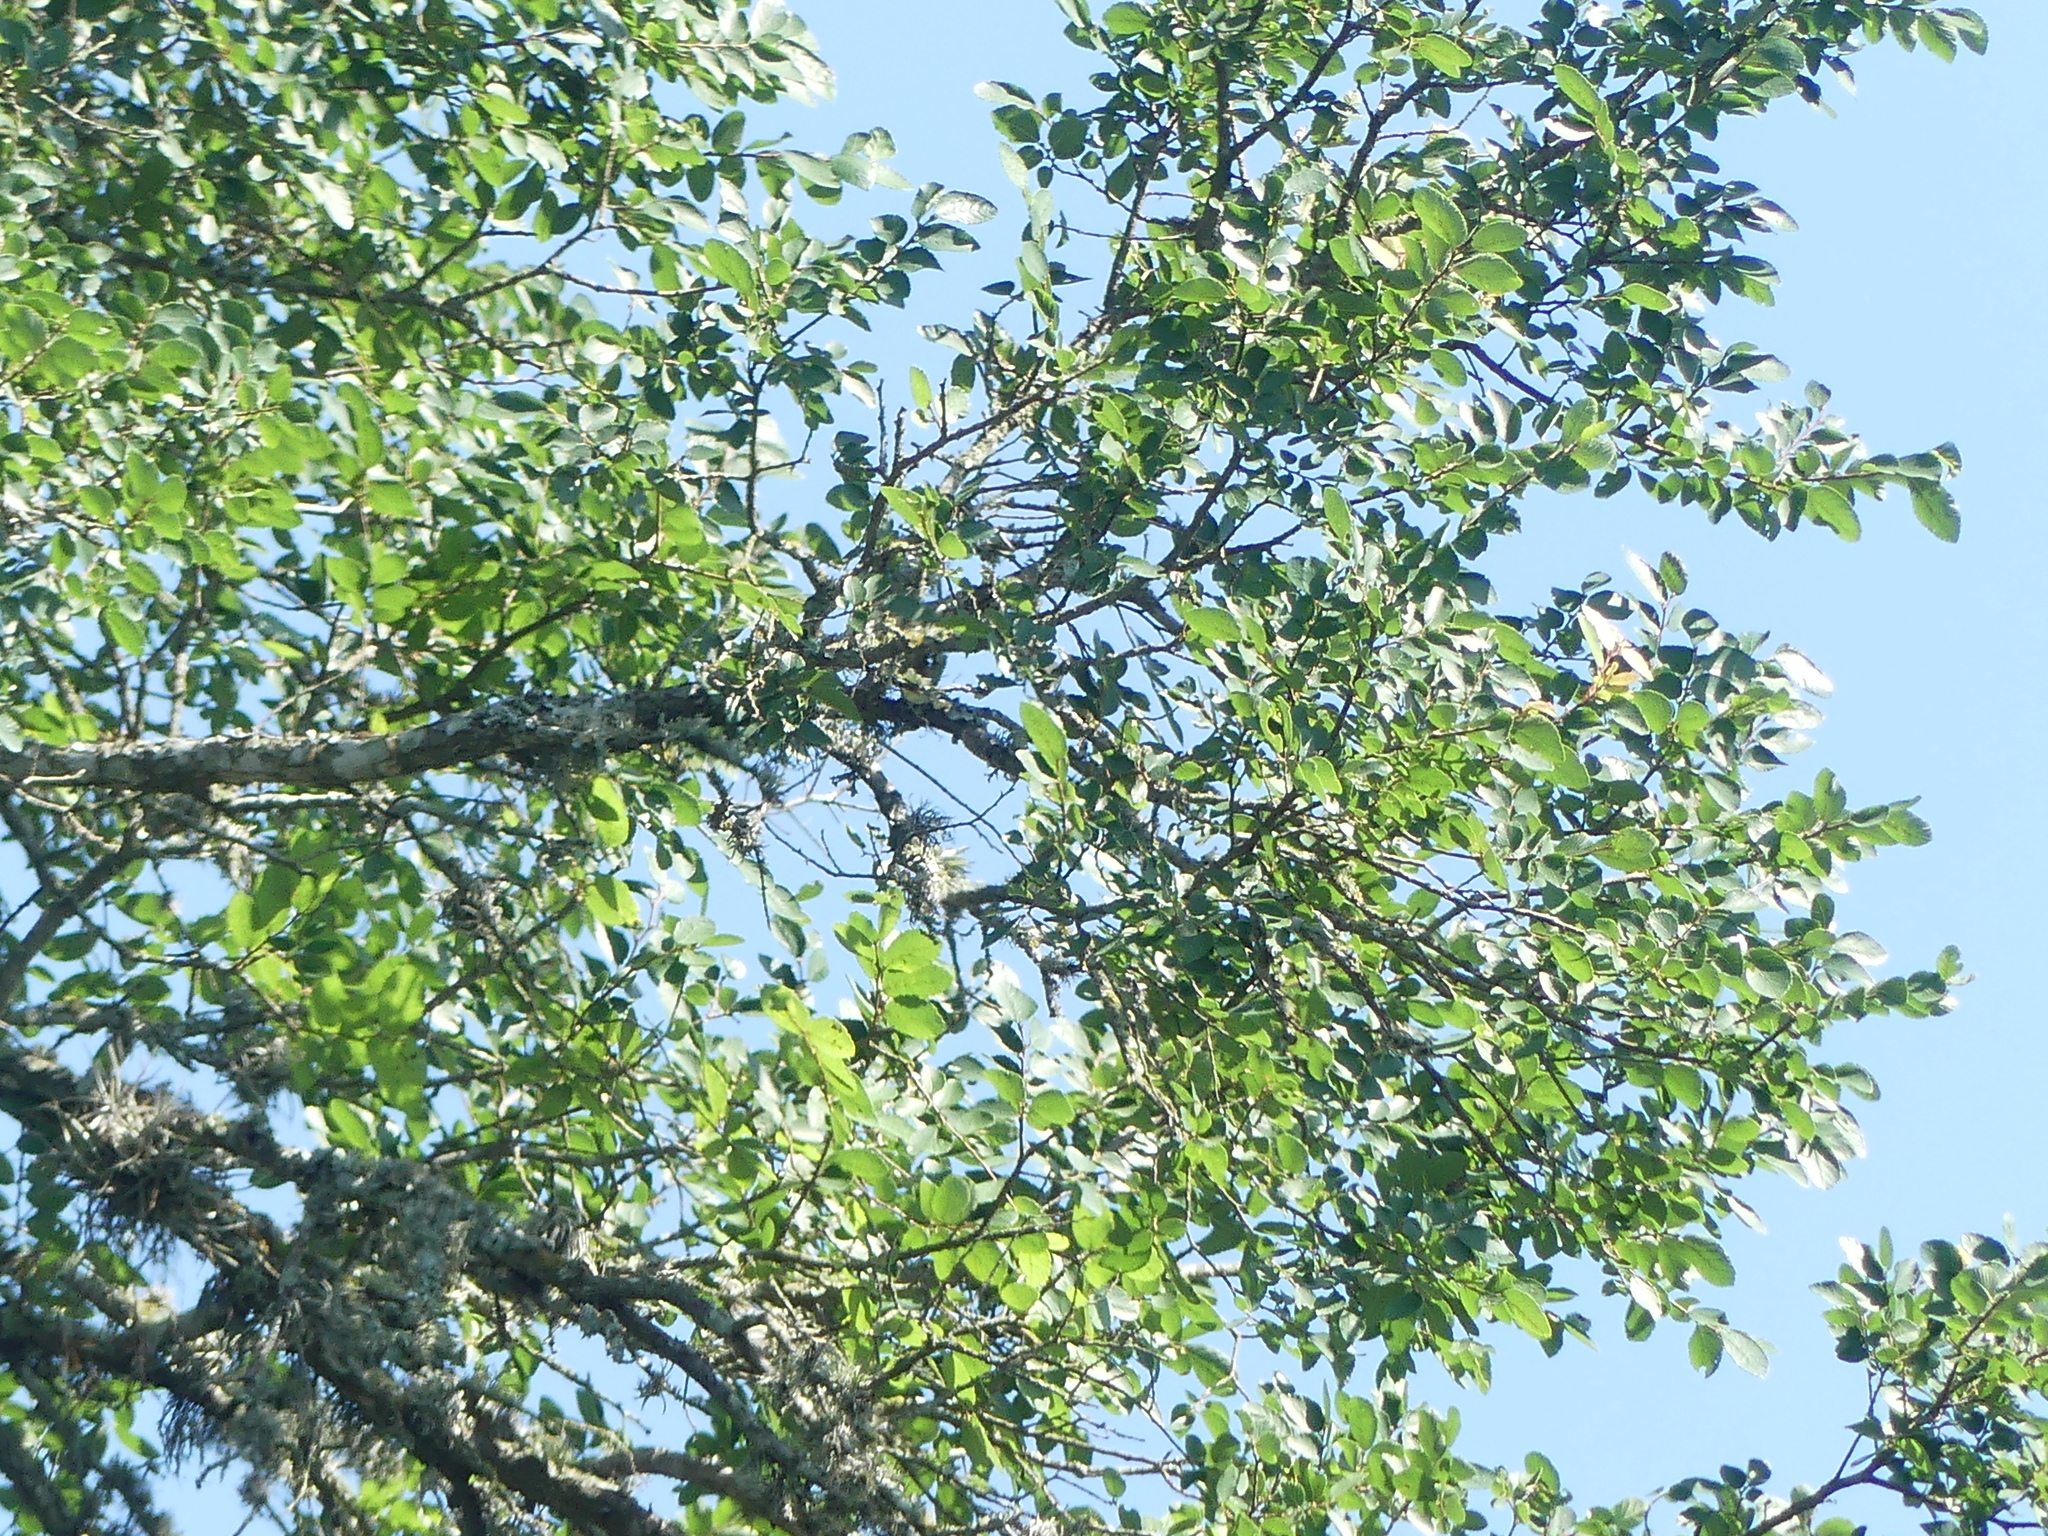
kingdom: Plantae
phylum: Tracheophyta
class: Magnoliopsida
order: Rosales
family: Ulmaceae
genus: Ulmus
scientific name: Ulmus crassifolia
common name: Basket elm
